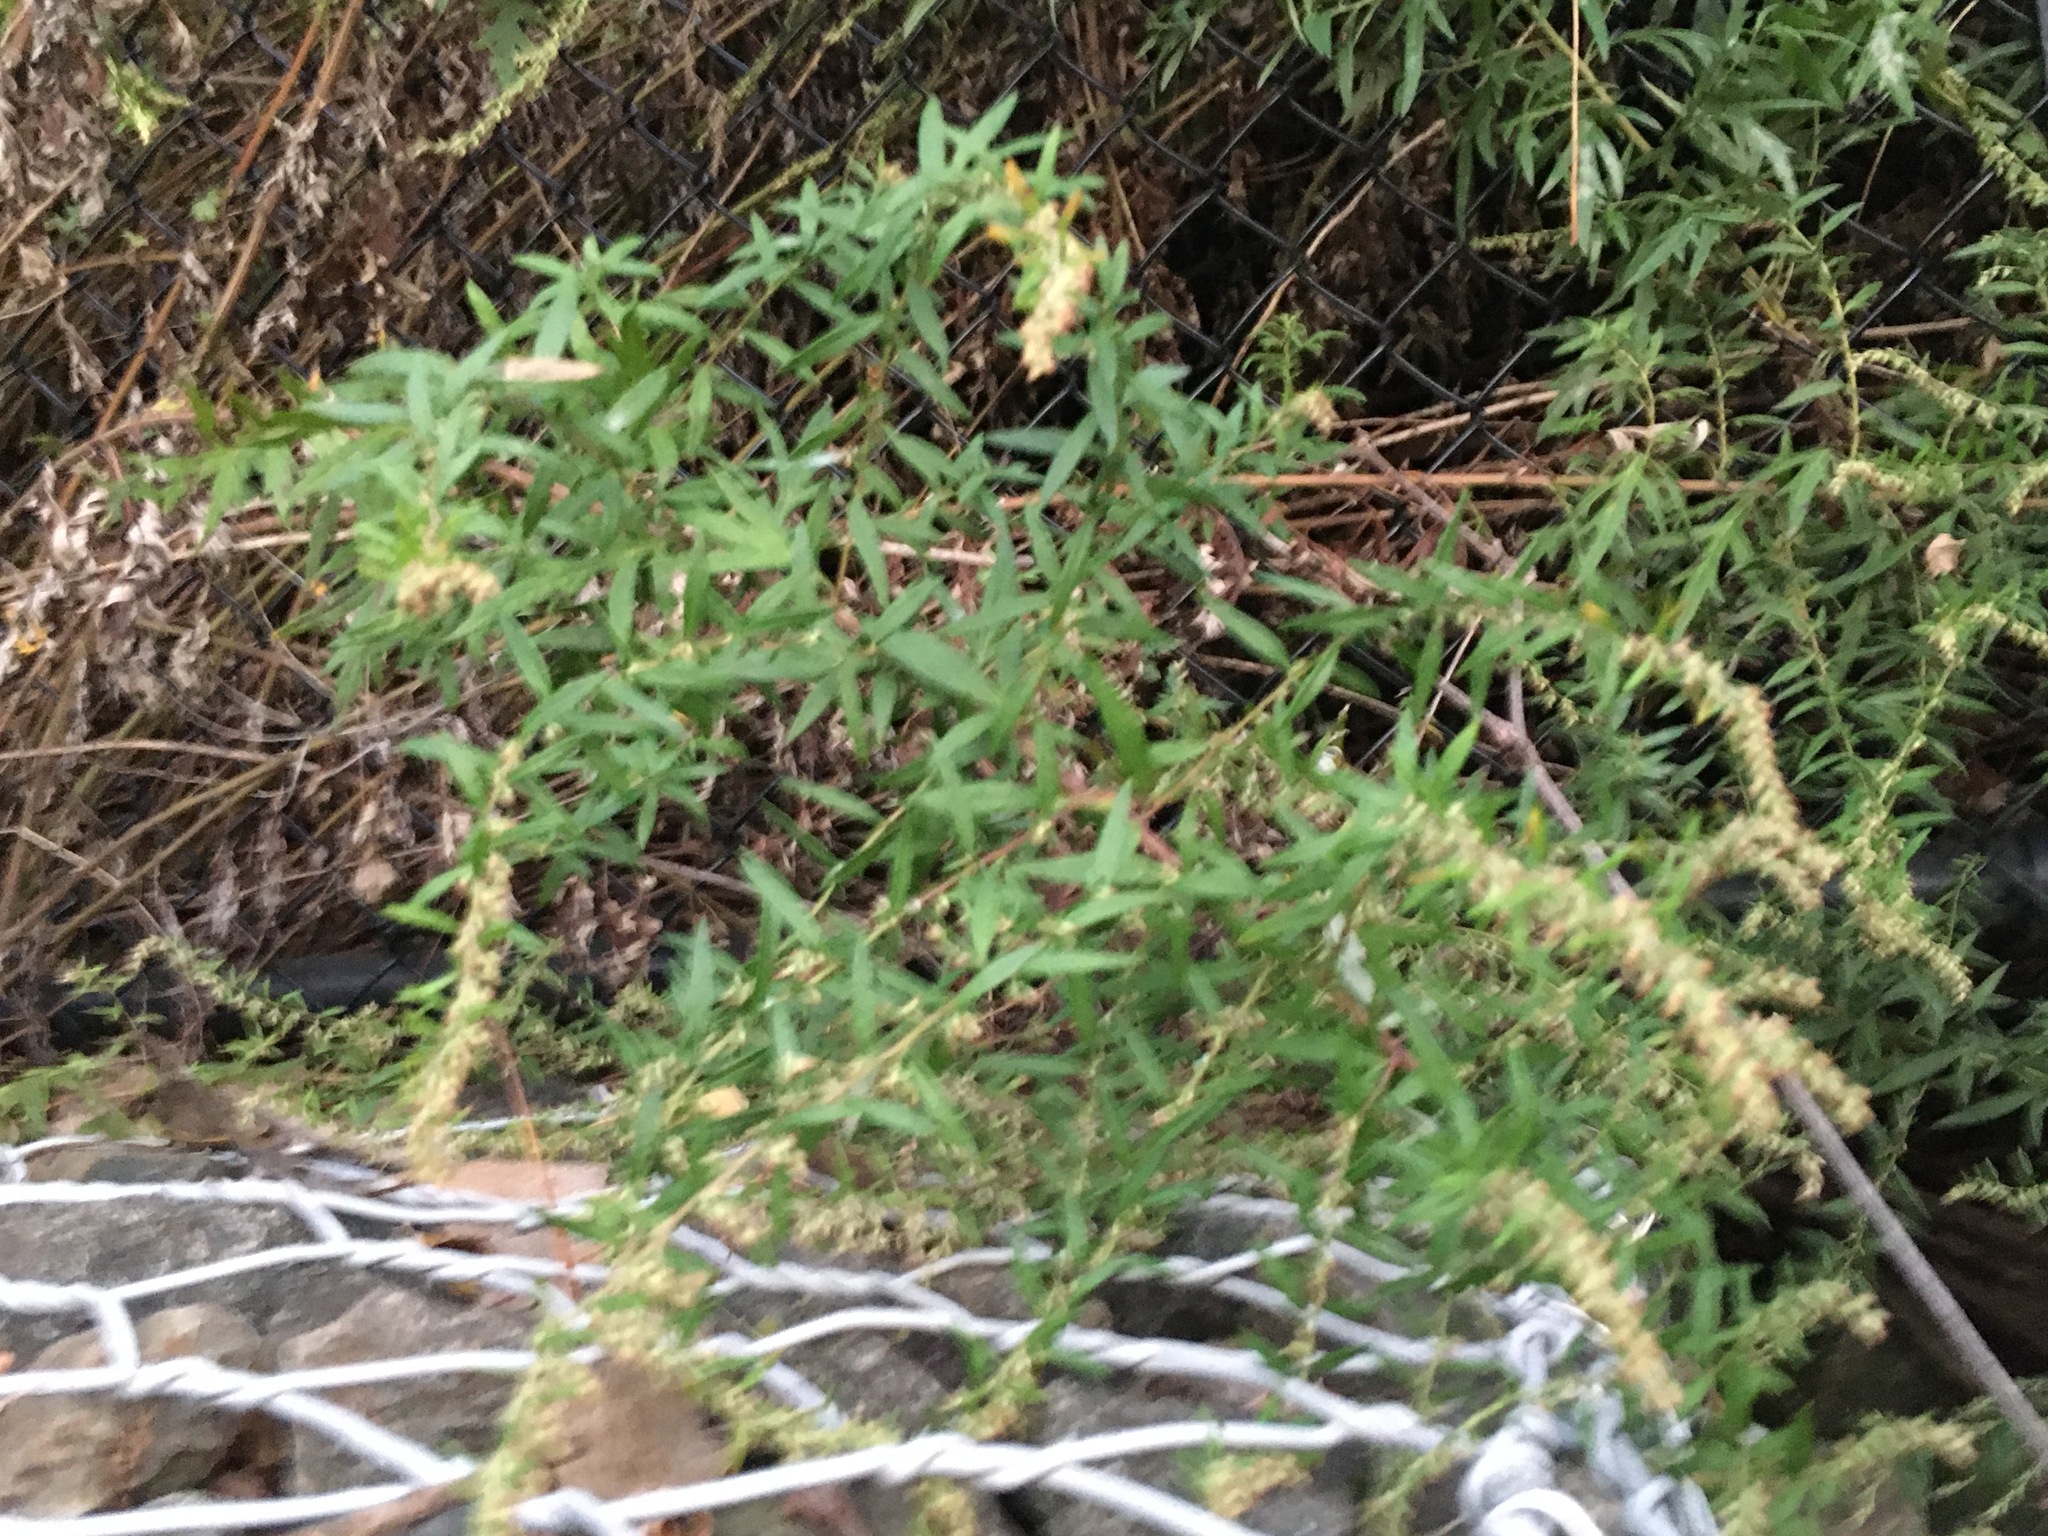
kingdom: Plantae
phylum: Tracheophyta
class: Magnoliopsida
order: Asterales
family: Asteraceae
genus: Artemisia
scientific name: Artemisia vulgaris
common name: Mugwort
